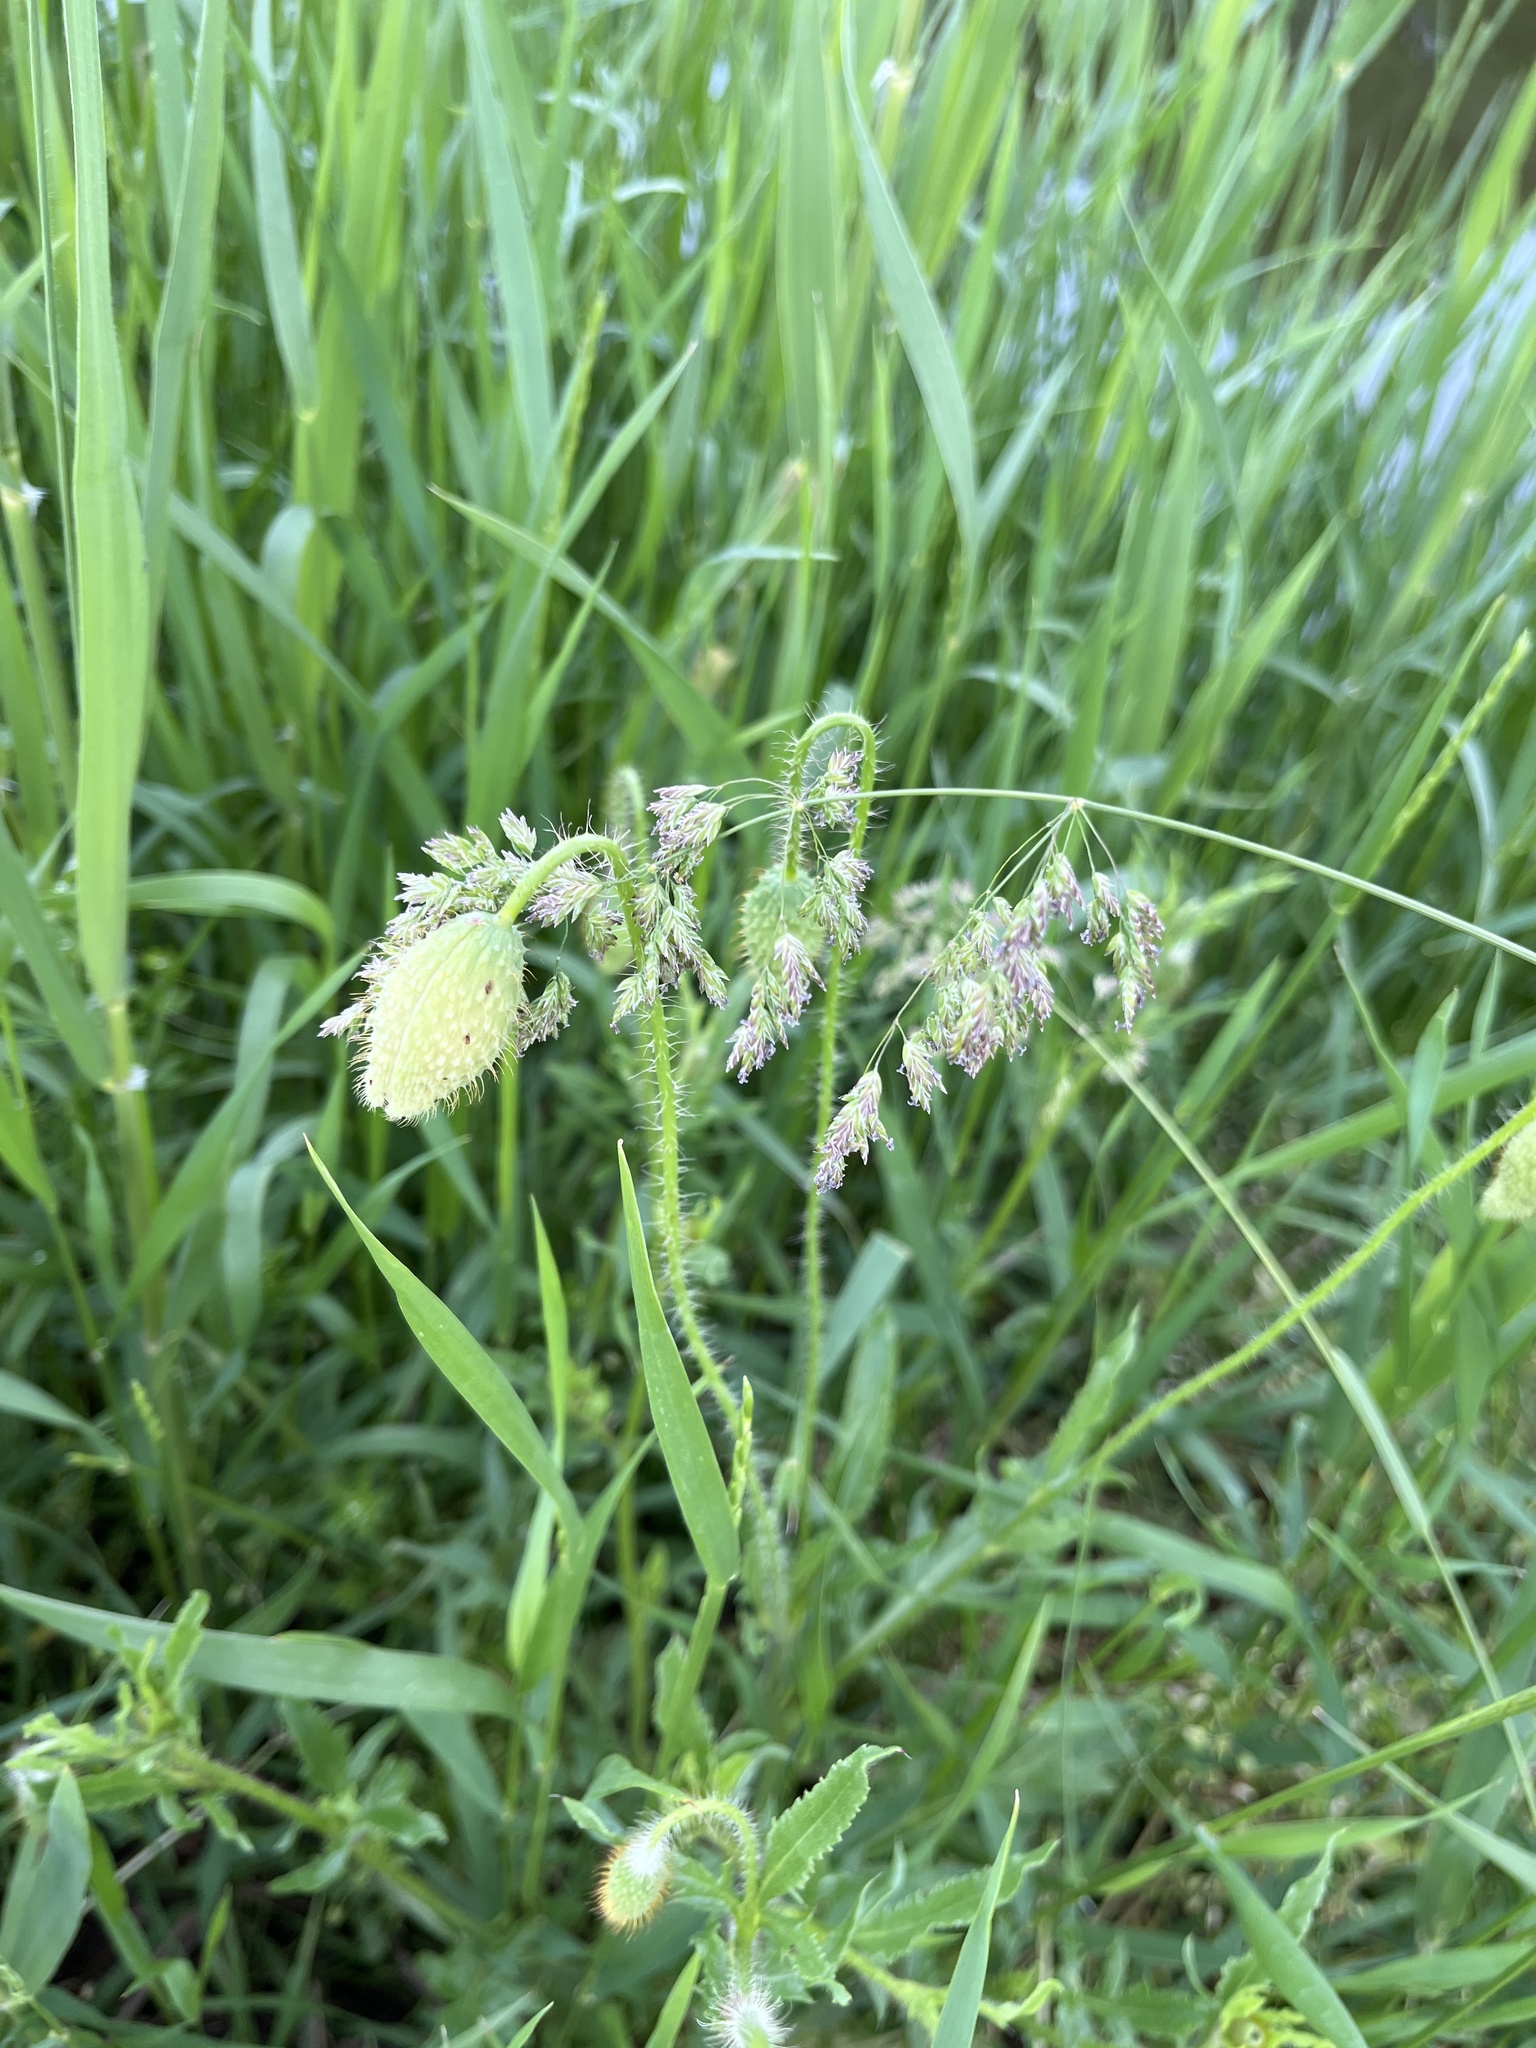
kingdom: Plantae
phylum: Tracheophyta
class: Magnoliopsida
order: Caryophyllales
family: Caryophyllaceae
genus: Silene
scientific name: Silene vulgaris
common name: Bladder campion
